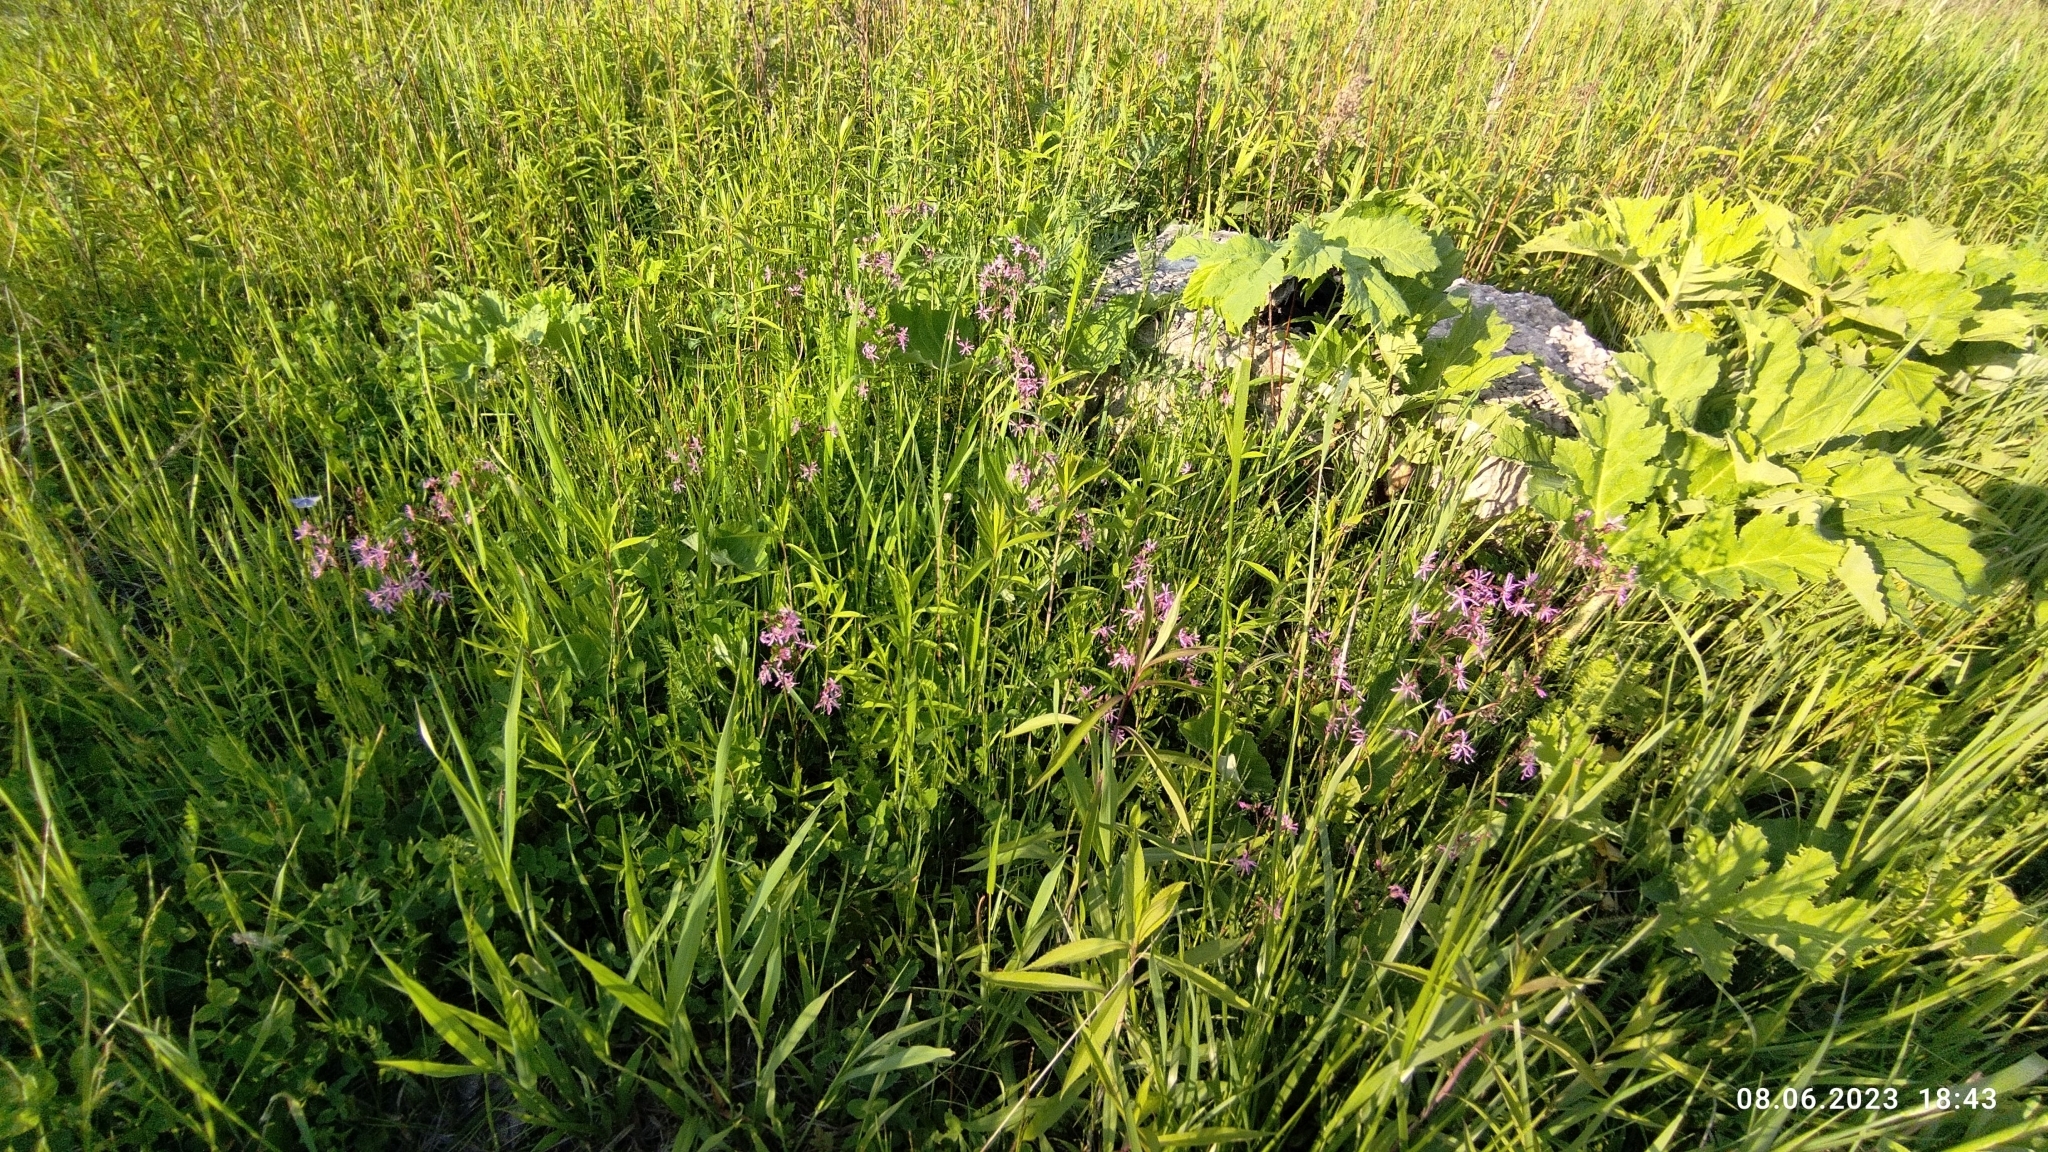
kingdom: Plantae
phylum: Tracheophyta
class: Magnoliopsida
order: Caryophyllales
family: Caryophyllaceae
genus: Silene
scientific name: Silene flos-cuculi
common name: Ragged-robin
